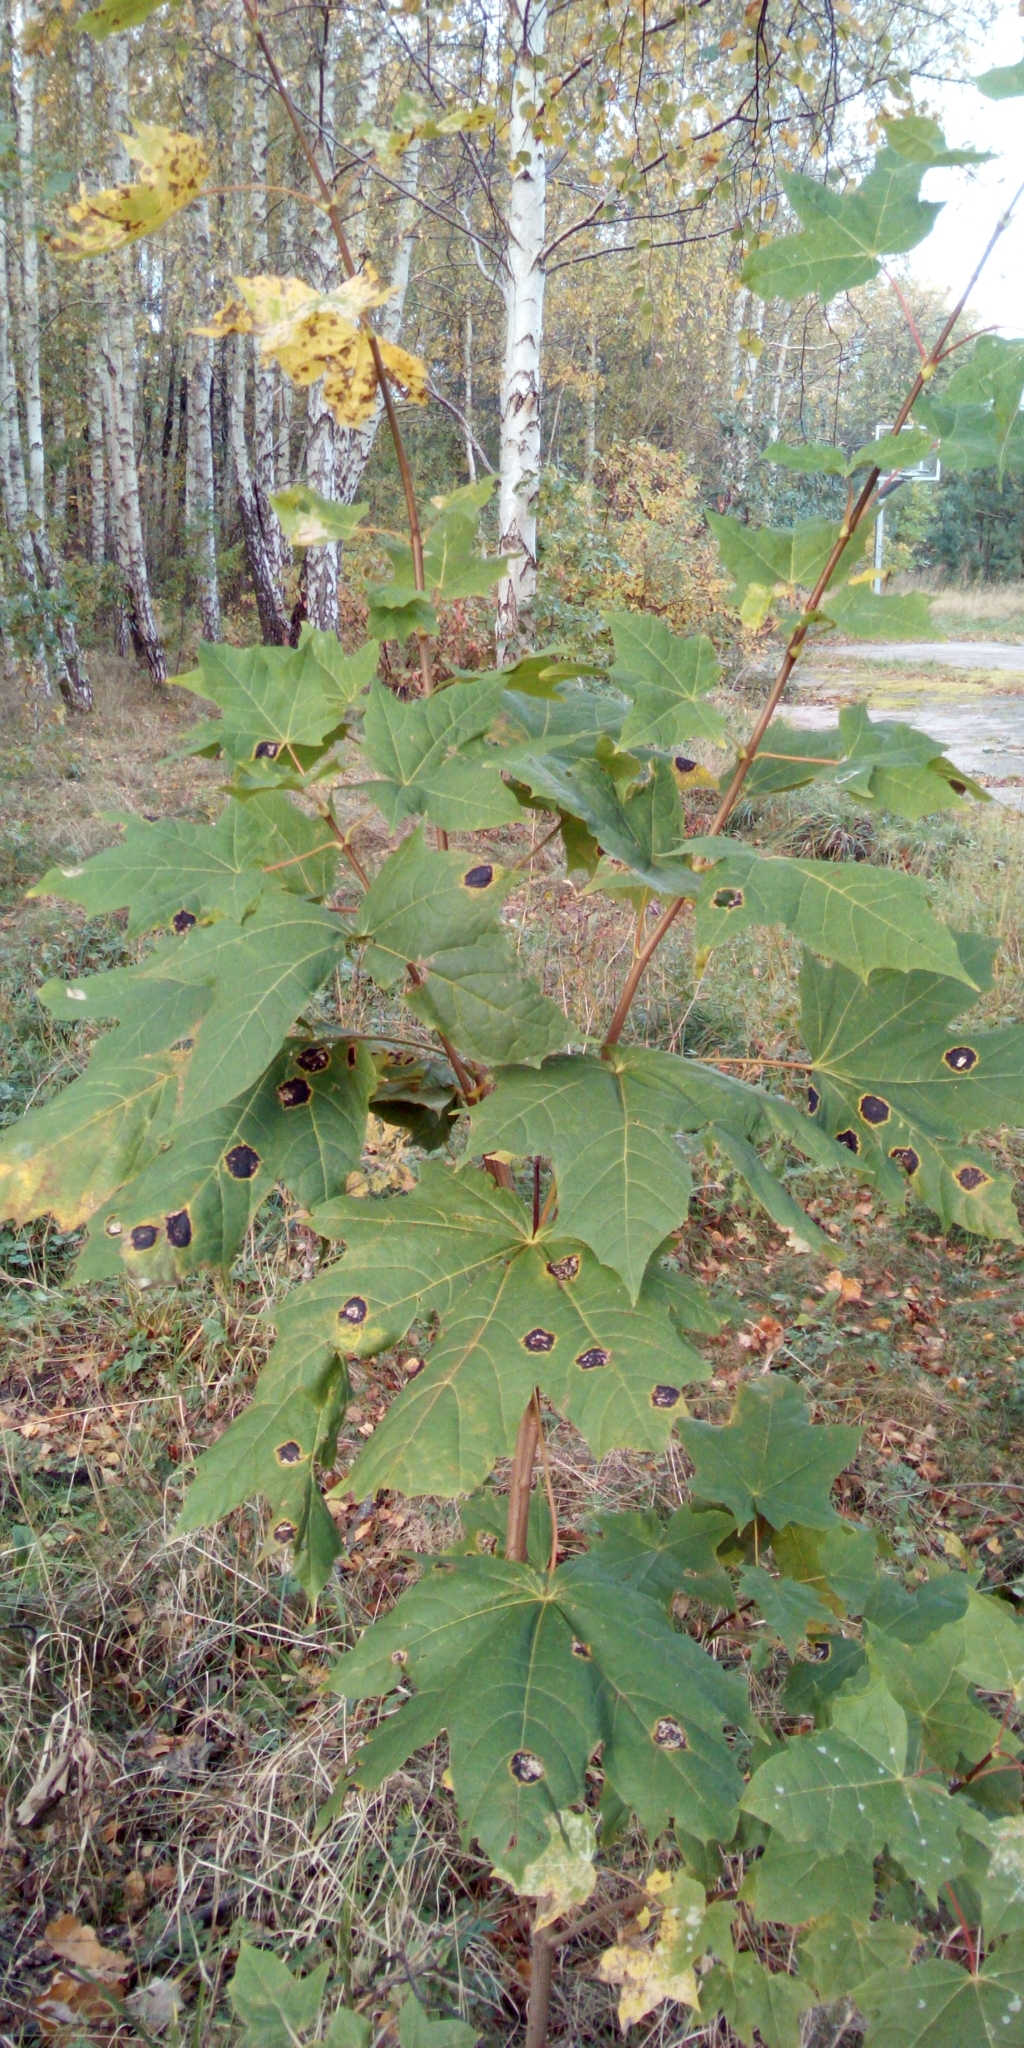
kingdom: Plantae
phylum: Tracheophyta
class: Magnoliopsida
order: Sapindales
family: Sapindaceae
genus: Acer
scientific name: Acer platanoides
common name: Norway maple
